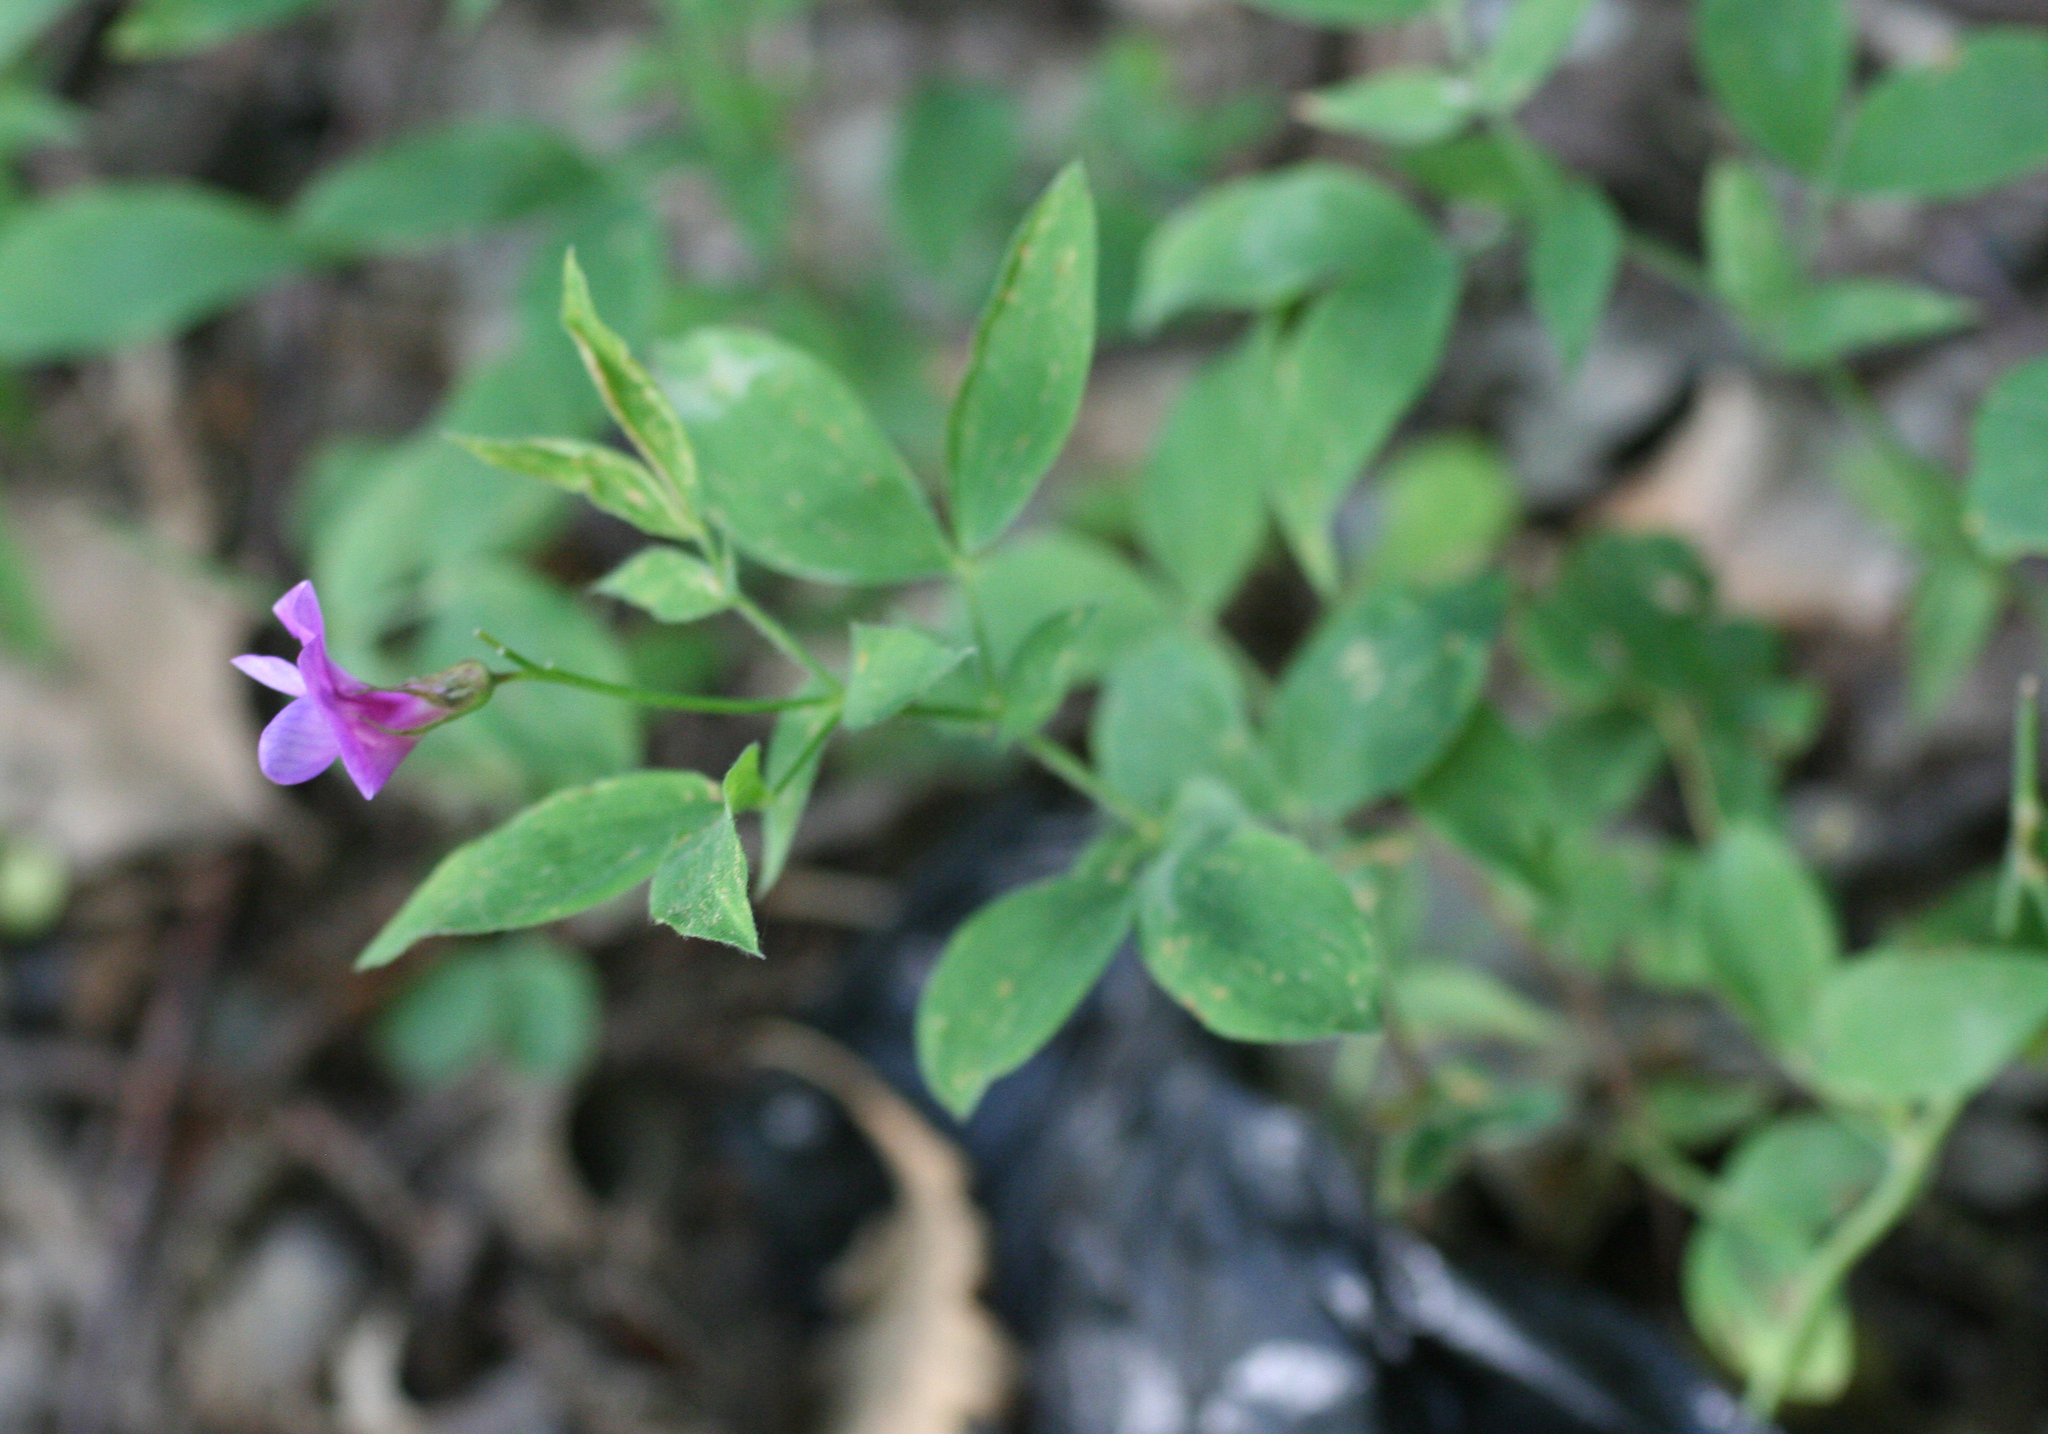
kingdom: Plantae
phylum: Tracheophyta
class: Magnoliopsida
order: Fabales
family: Fabaceae
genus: Lathyrus
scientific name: Lathyrus laxiflorus
